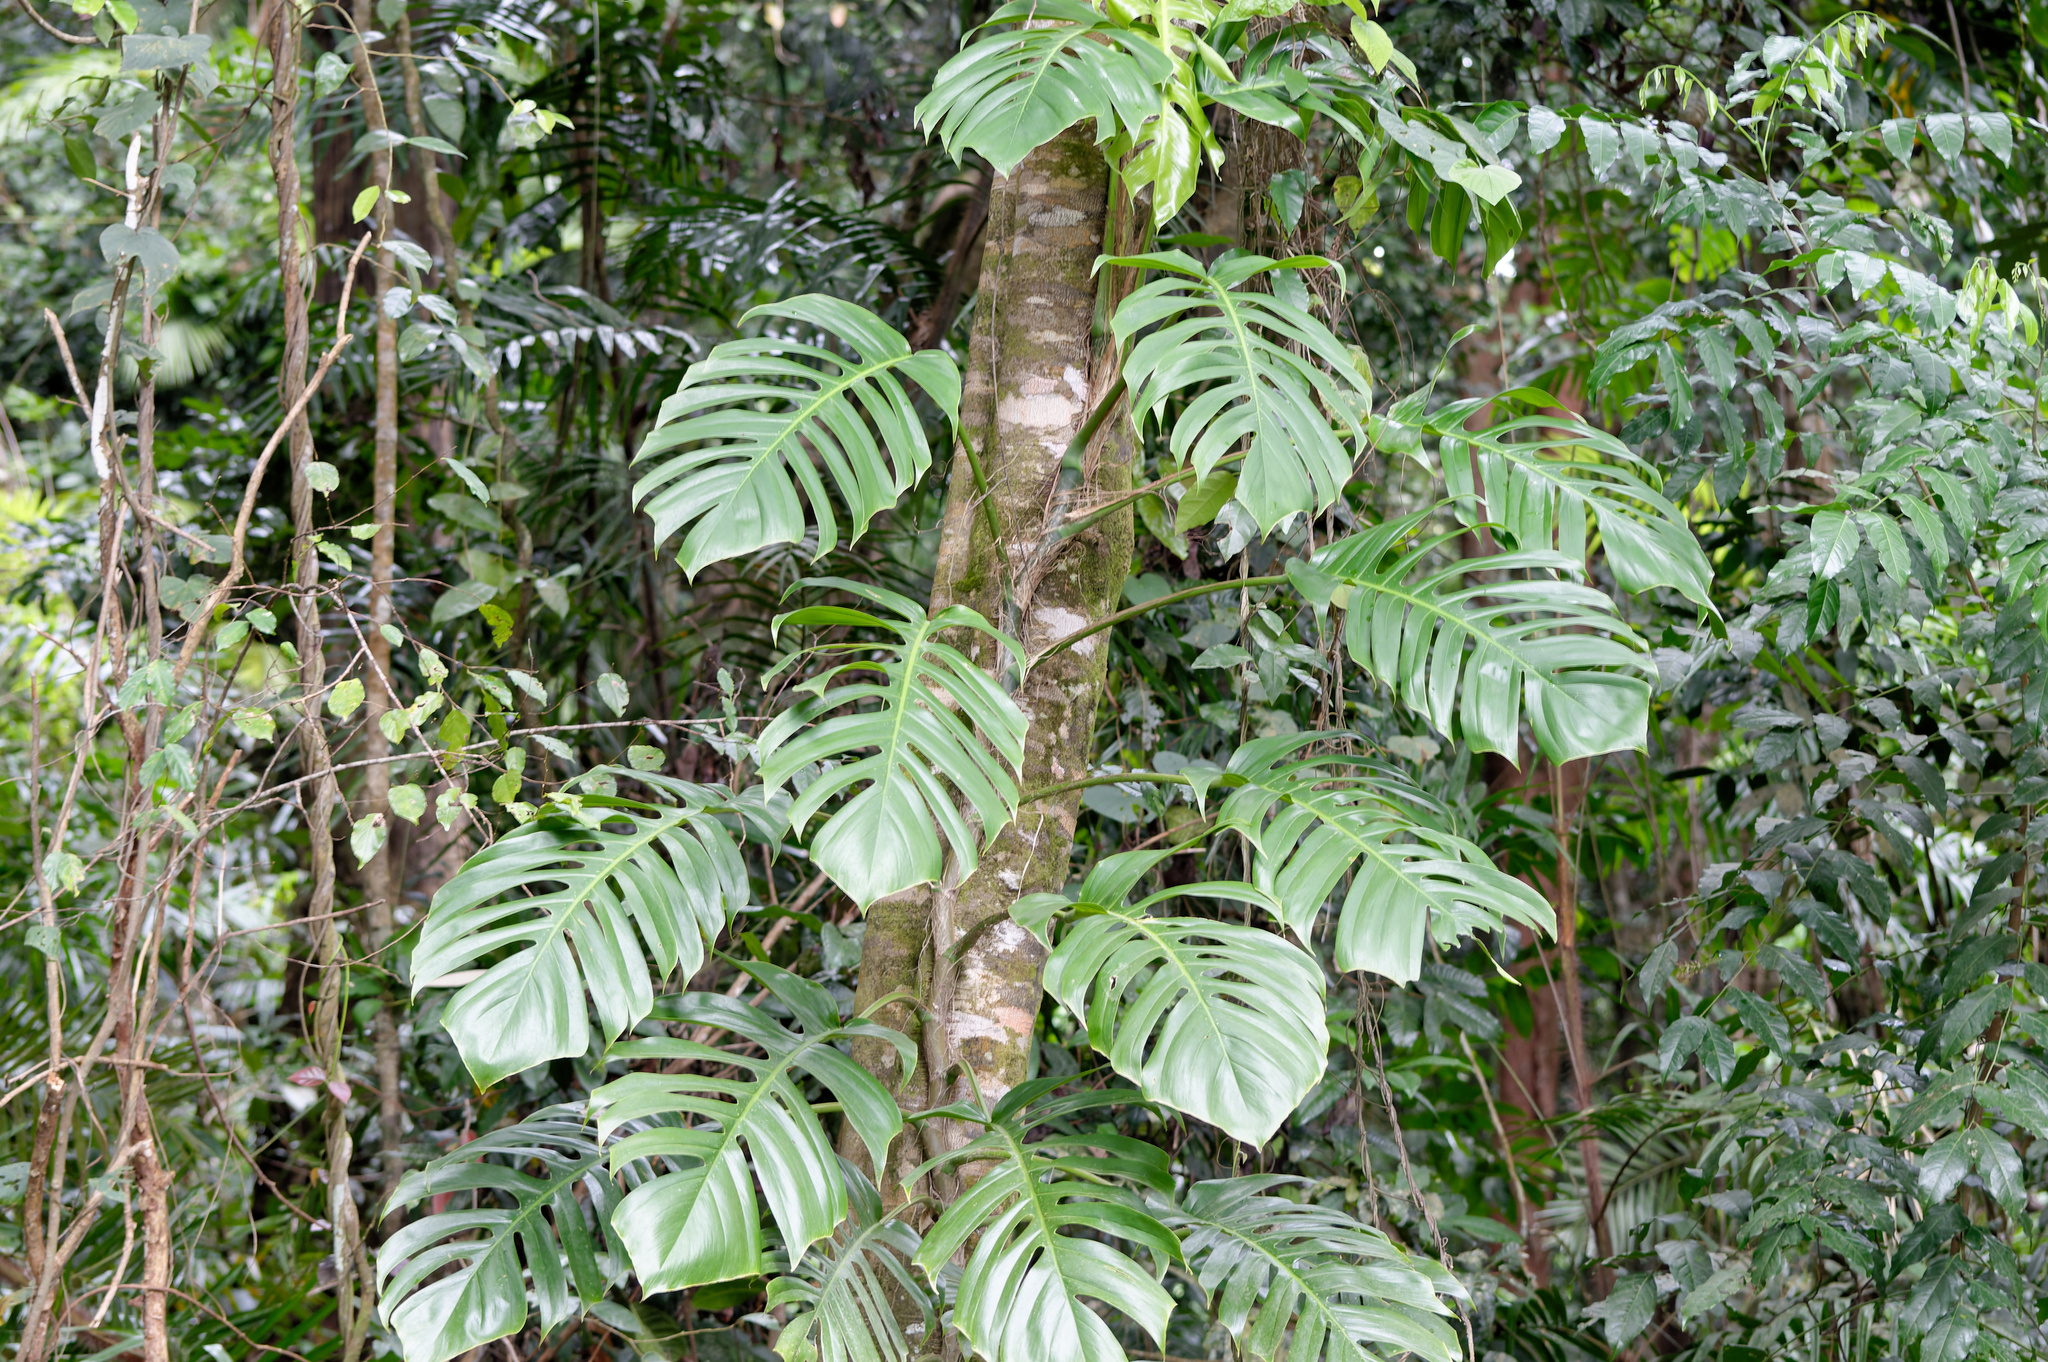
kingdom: Plantae
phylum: Tracheophyta
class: Liliopsida
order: Alismatales
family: Araceae
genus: Epipremnum
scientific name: Epipremnum pinnatum
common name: Centipede tongavine
